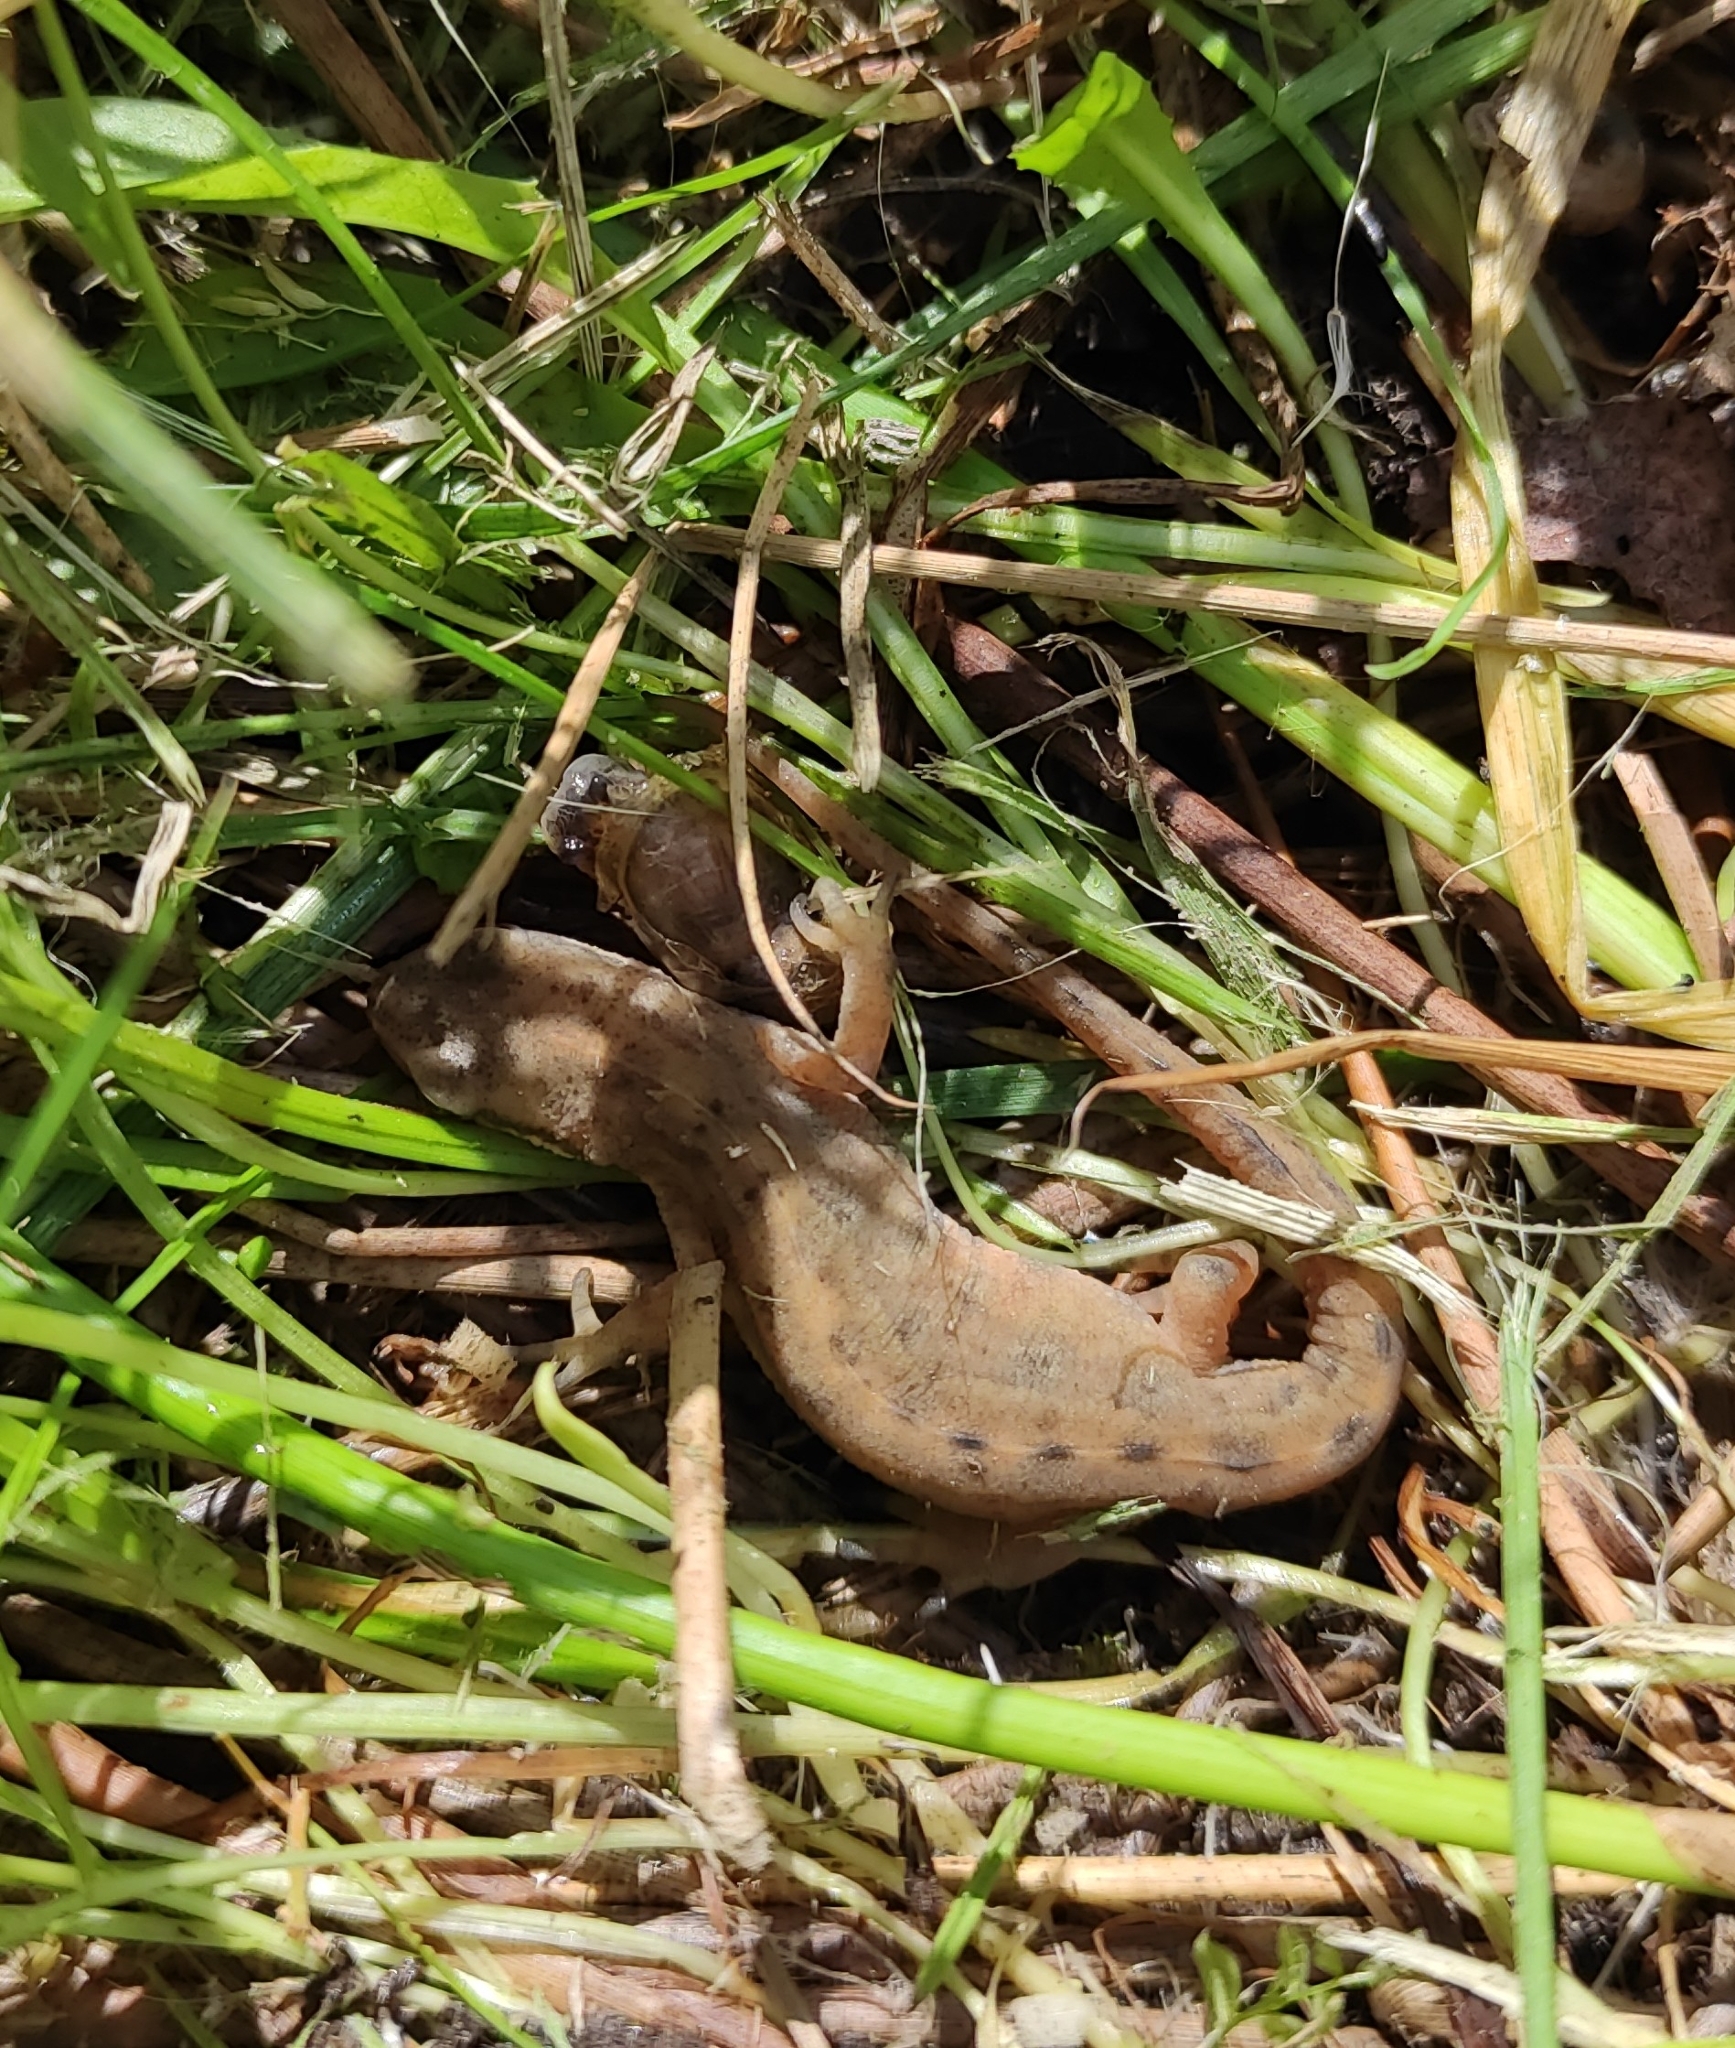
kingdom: Animalia
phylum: Chordata
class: Amphibia
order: Caudata
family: Salamandridae
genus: Lissotriton
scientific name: Lissotriton vulgaris
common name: Smooth newt
